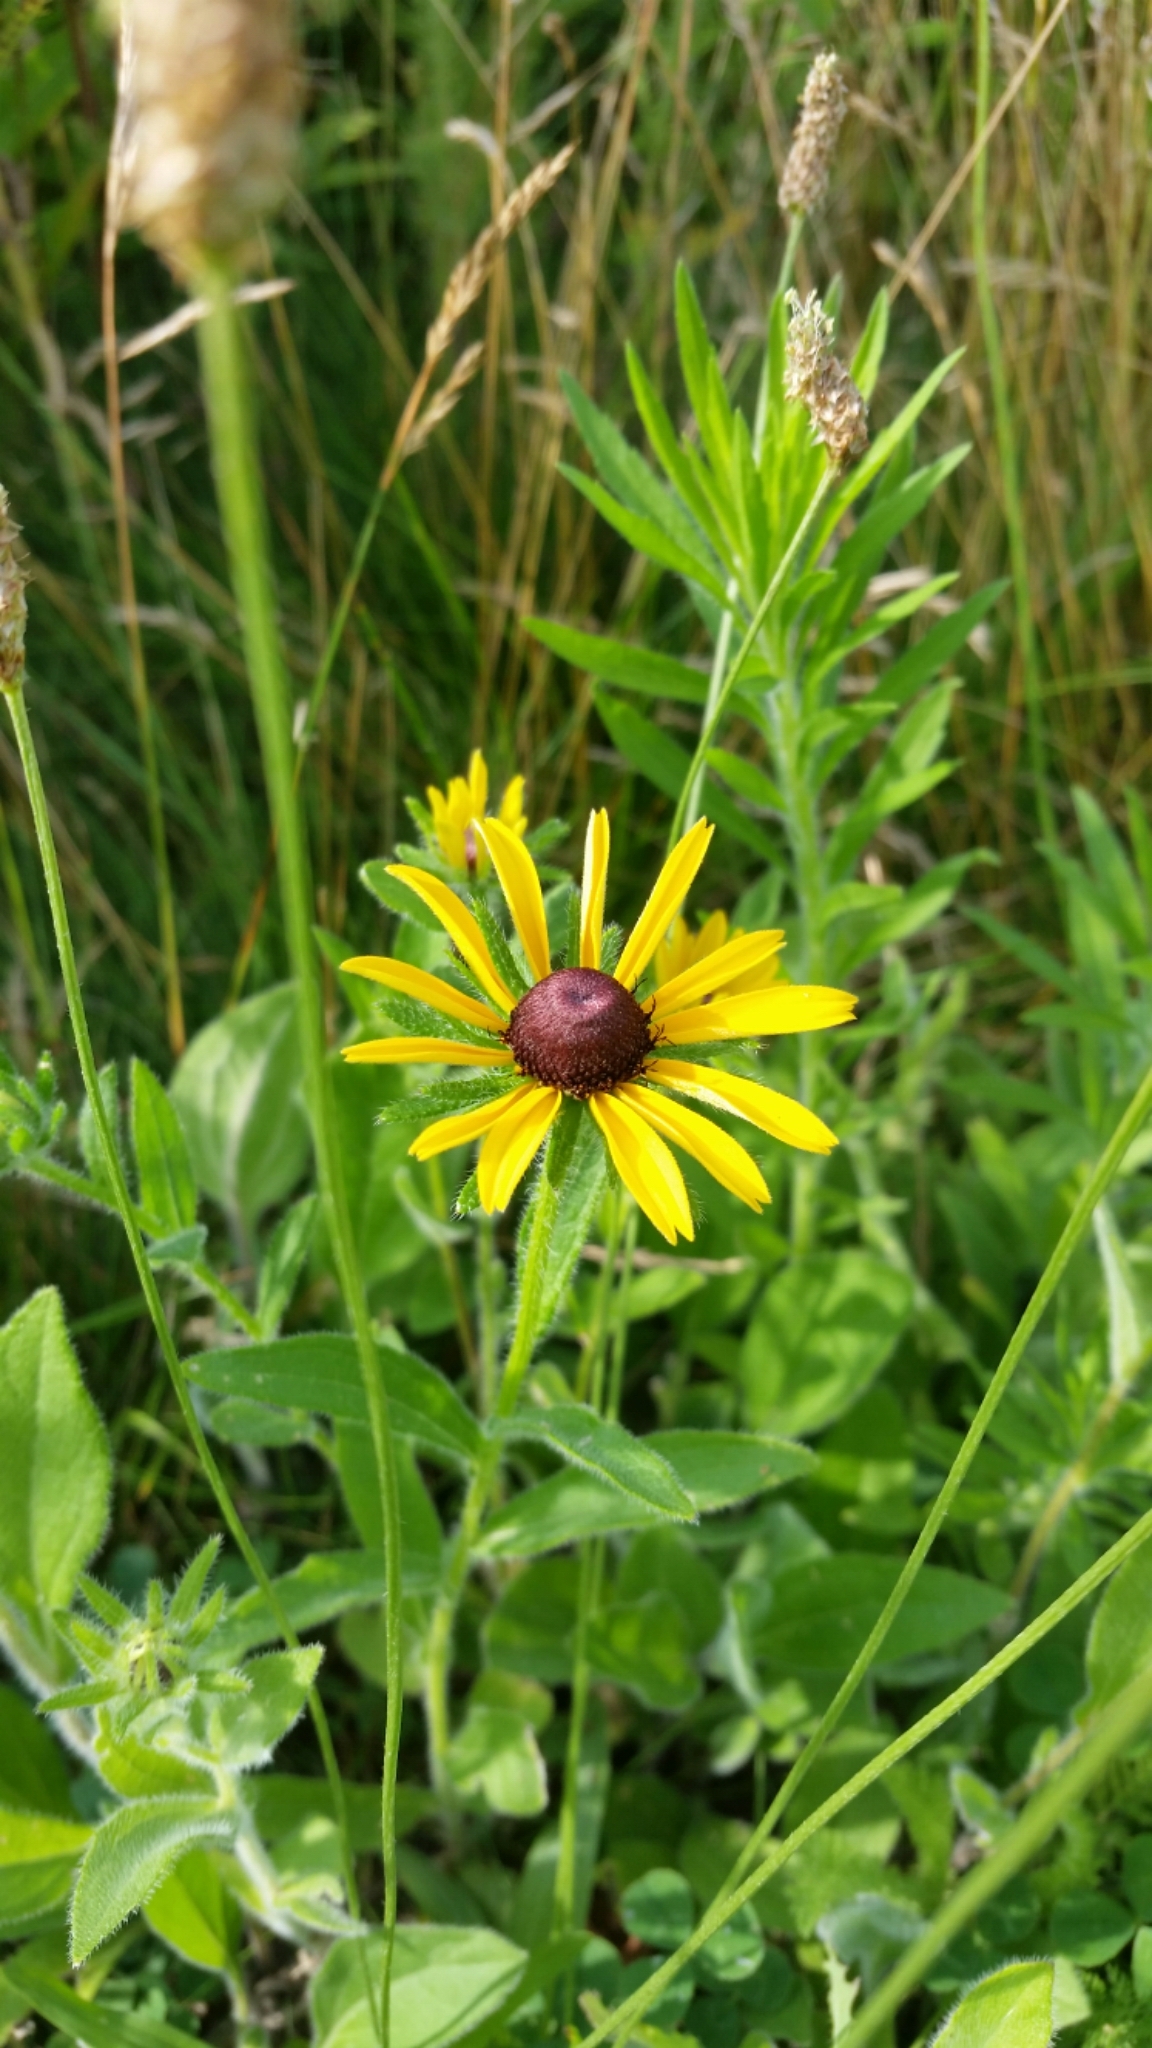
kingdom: Plantae
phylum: Tracheophyta
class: Magnoliopsida
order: Asterales
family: Asteraceae
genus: Rudbeckia
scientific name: Rudbeckia hirta
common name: Black-eyed-susan
